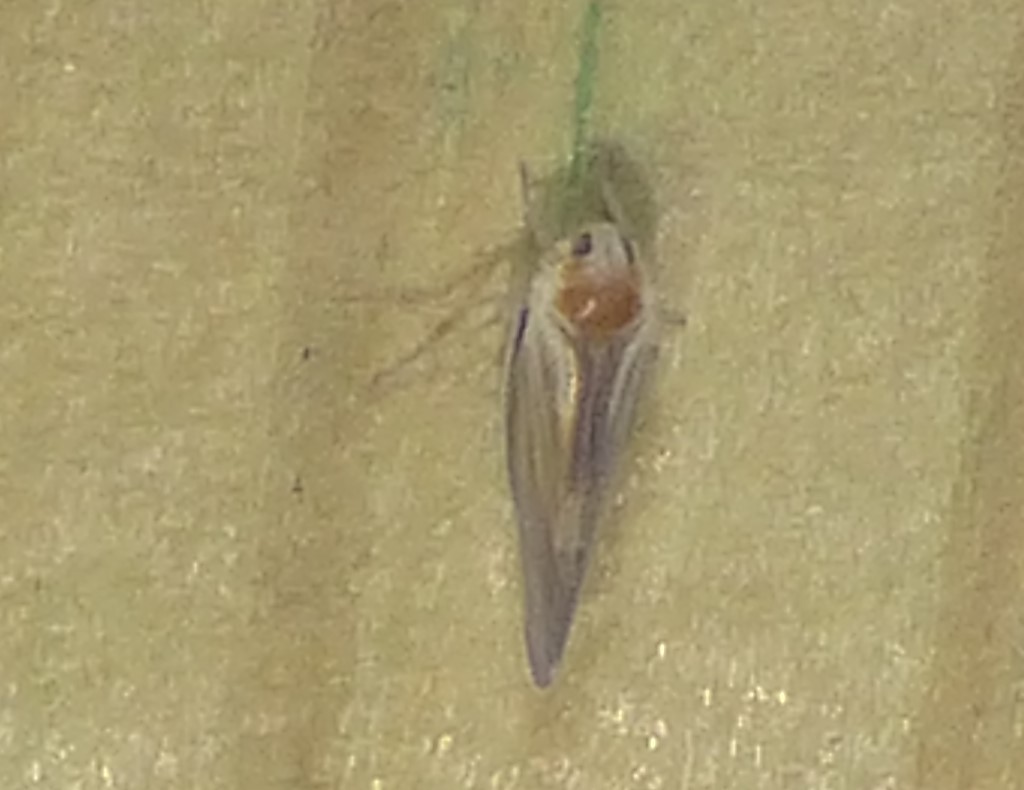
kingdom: Animalia
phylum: Arthropoda
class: Insecta
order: Hemiptera
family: Derbidae
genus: Omolicna
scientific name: Omolicna uhleri
